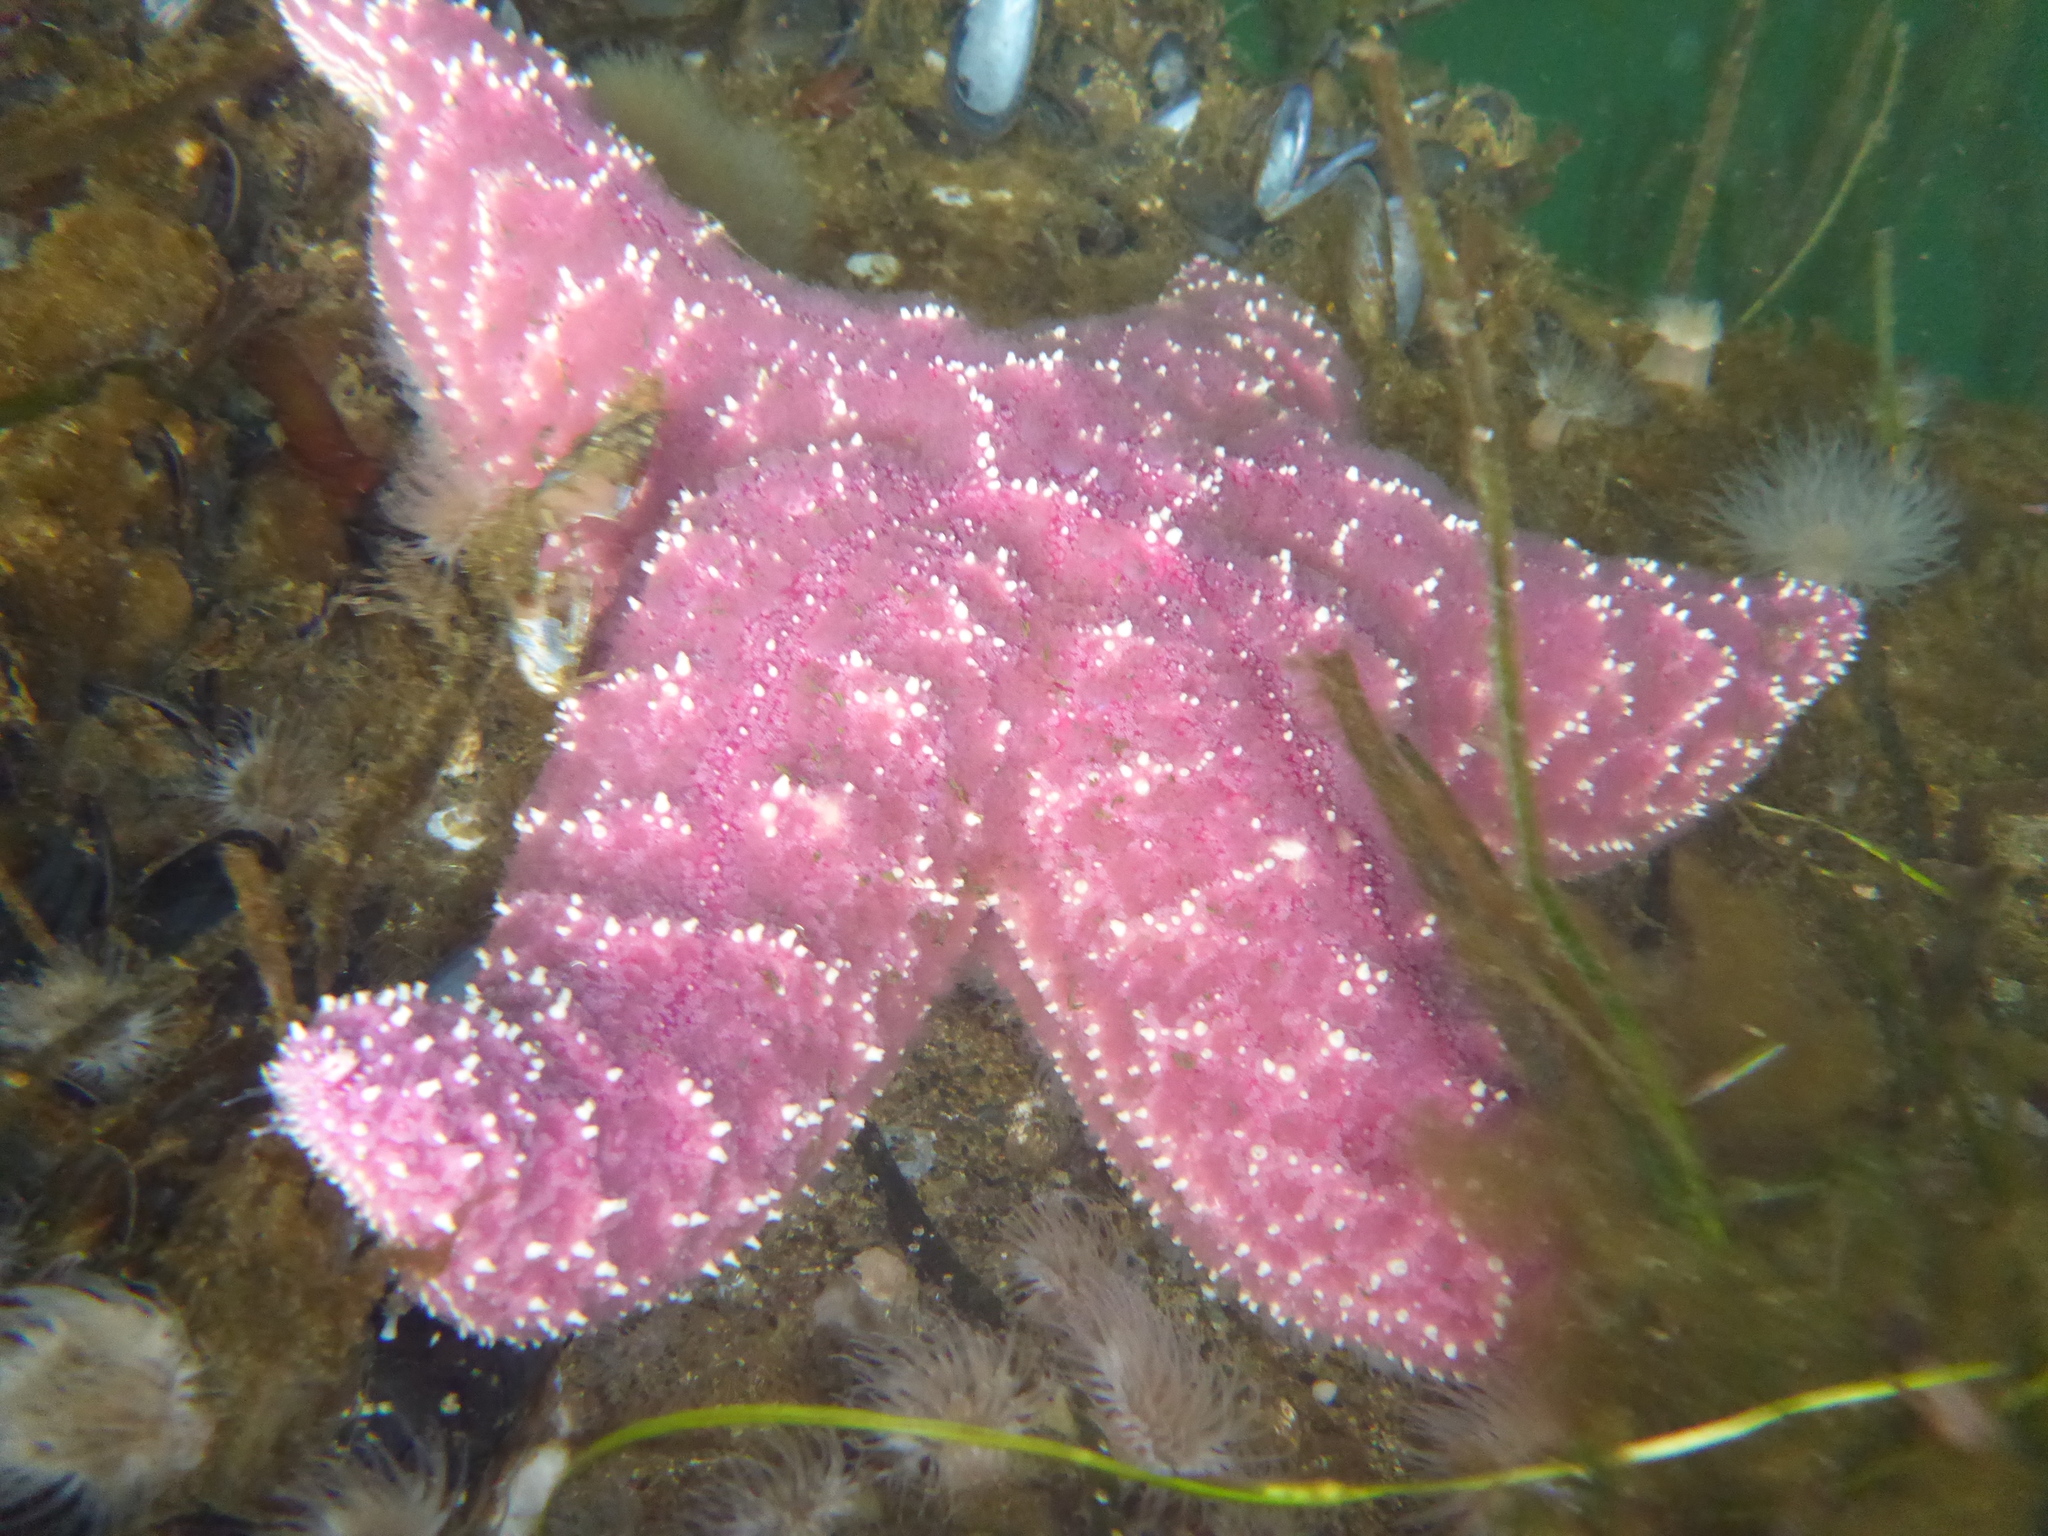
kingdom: Animalia
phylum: Echinodermata
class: Asteroidea
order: Forcipulatida
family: Asteriidae
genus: Pisaster
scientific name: Pisaster ochraceus
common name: Ochre stars
